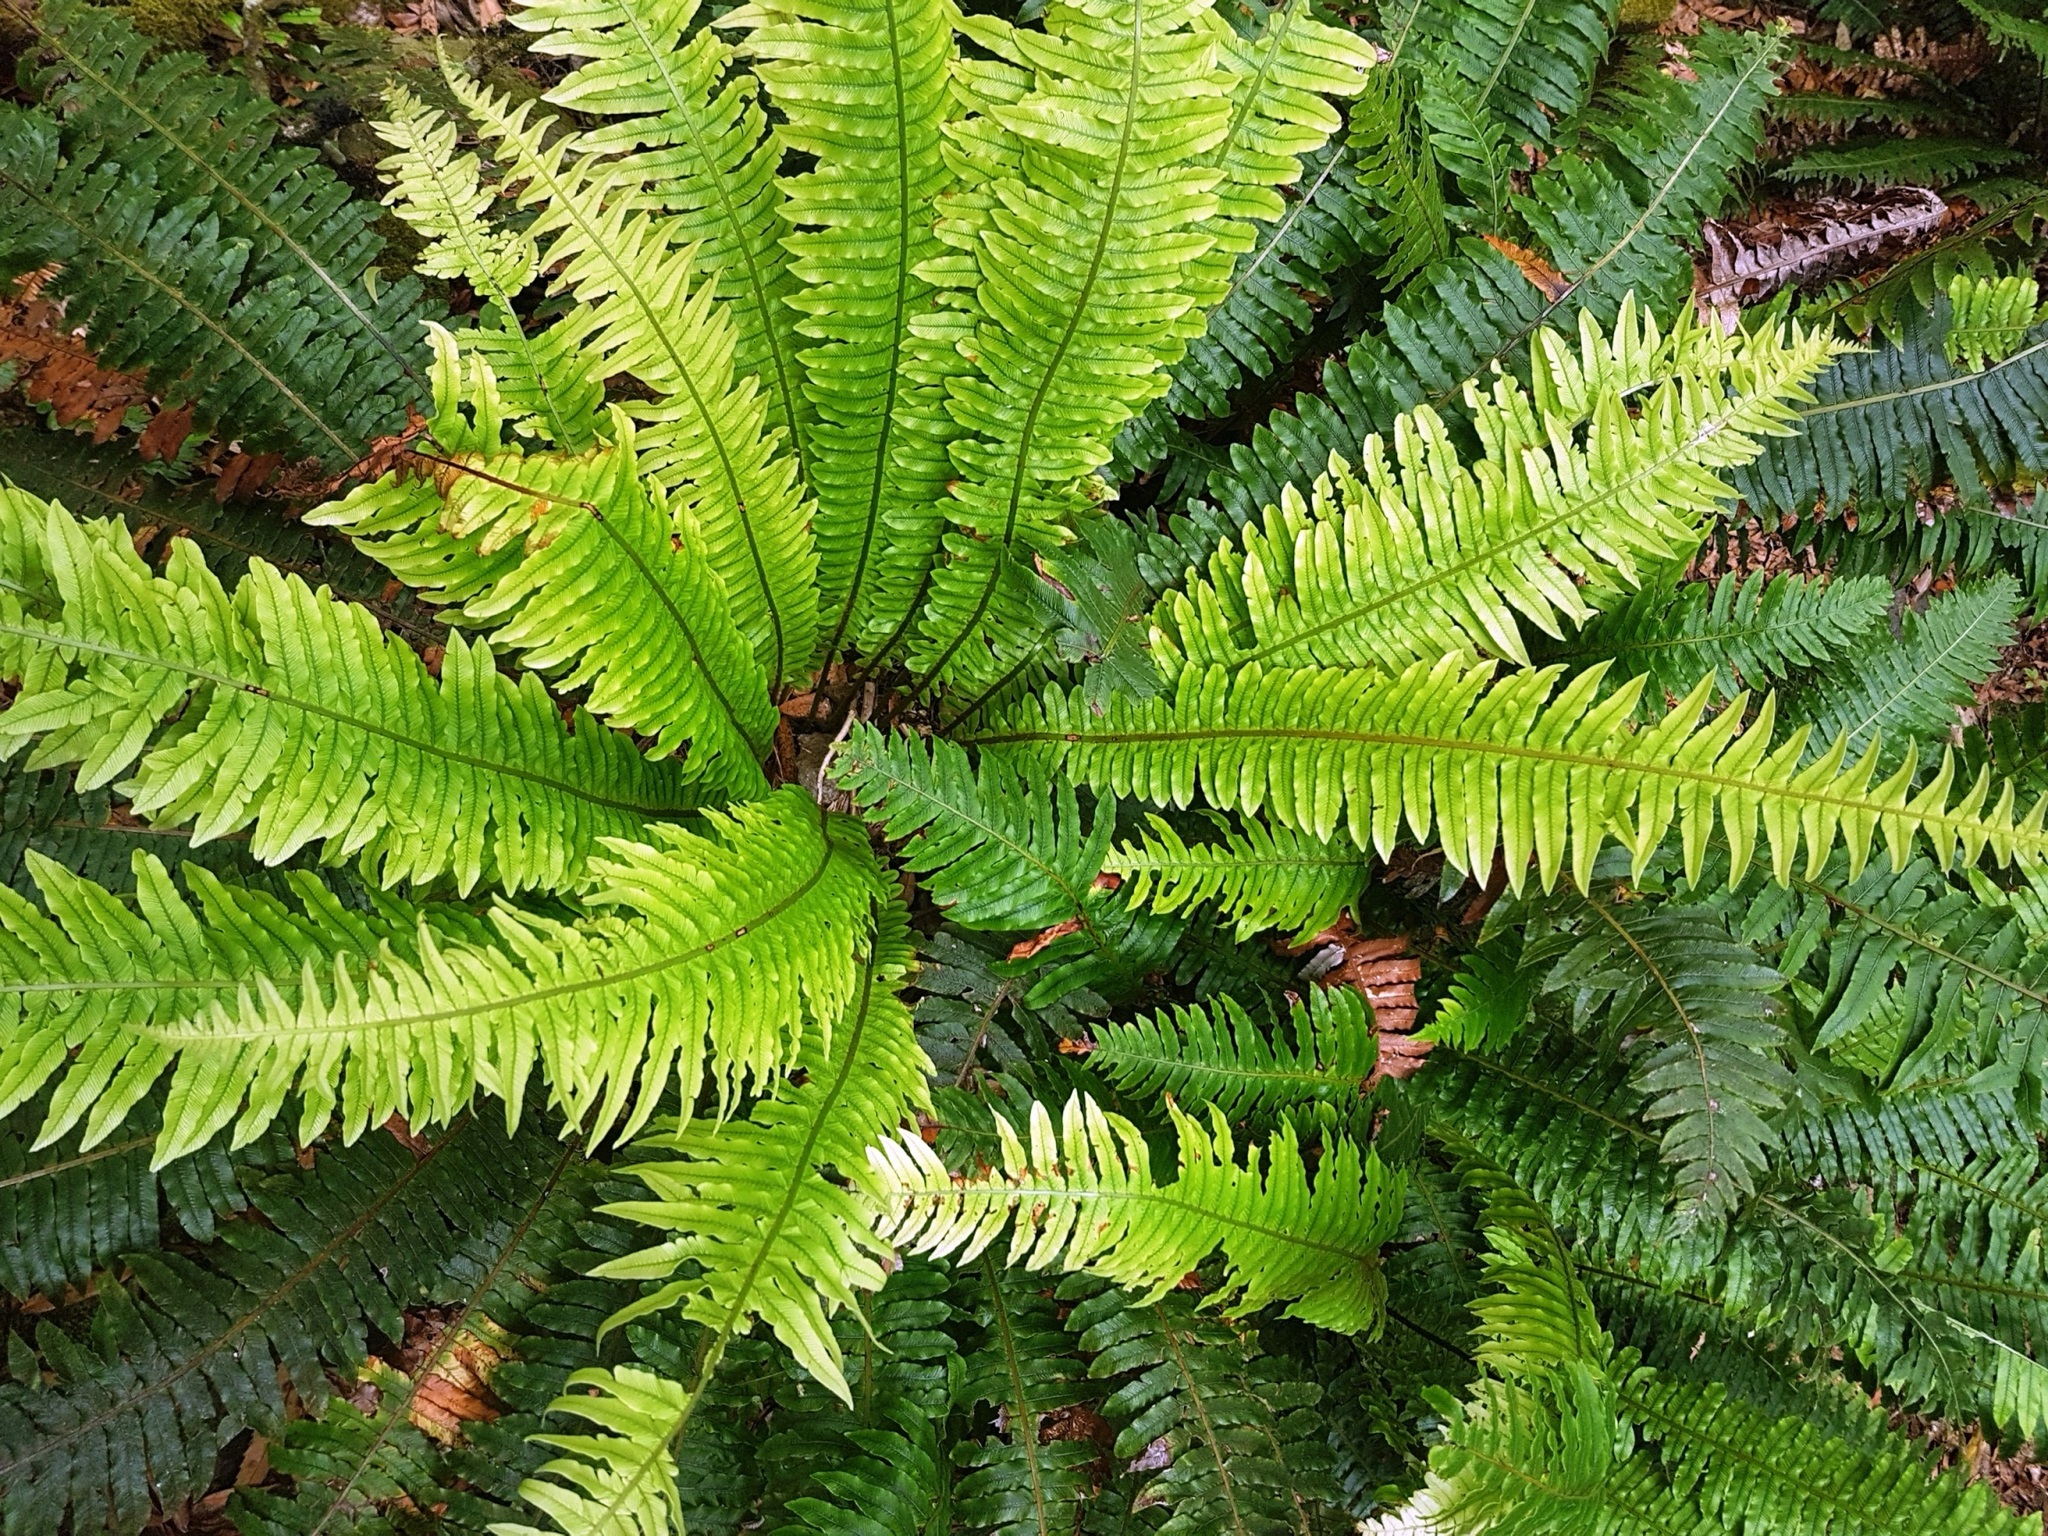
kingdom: Plantae
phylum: Tracheophyta
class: Polypodiopsida
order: Polypodiales
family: Blechnaceae
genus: Lomaria
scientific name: Lomaria discolor
